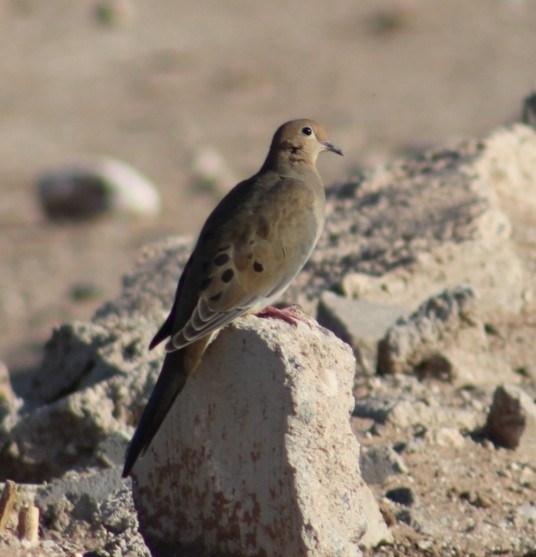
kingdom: Animalia
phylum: Chordata
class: Aves
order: Columbiformes
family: Columbidae
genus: Zenaida
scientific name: Zenaida macroura
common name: Mourning dove
